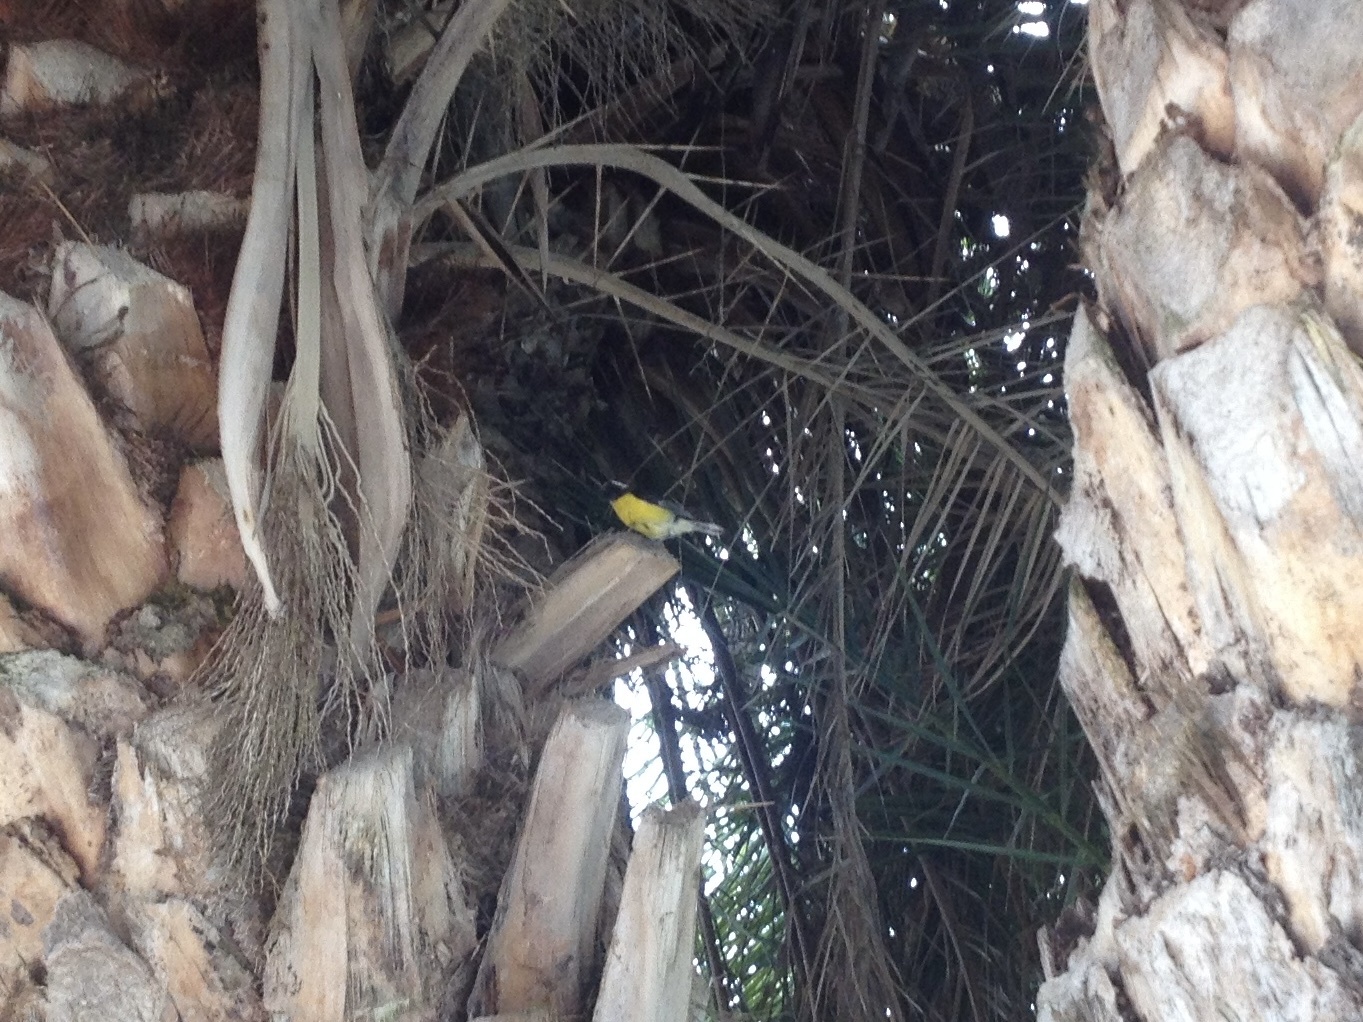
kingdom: Animalia
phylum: Chordata
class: Aves
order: Passeriformes
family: Thraupidae
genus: Coereba
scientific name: Coereba flaveola
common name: Bananaquit
